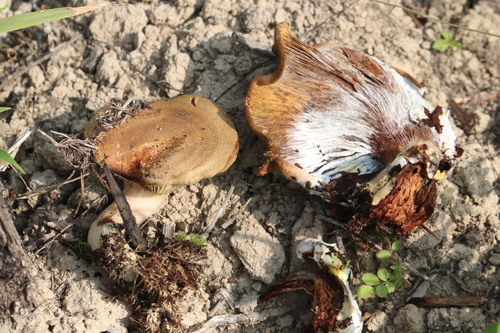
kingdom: Fungi
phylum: Basidiomycota
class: Agaricomycetes
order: Boletales
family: Paxillaceae
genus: Paxillus
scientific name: Paxillus involutus
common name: Brown roll rim
